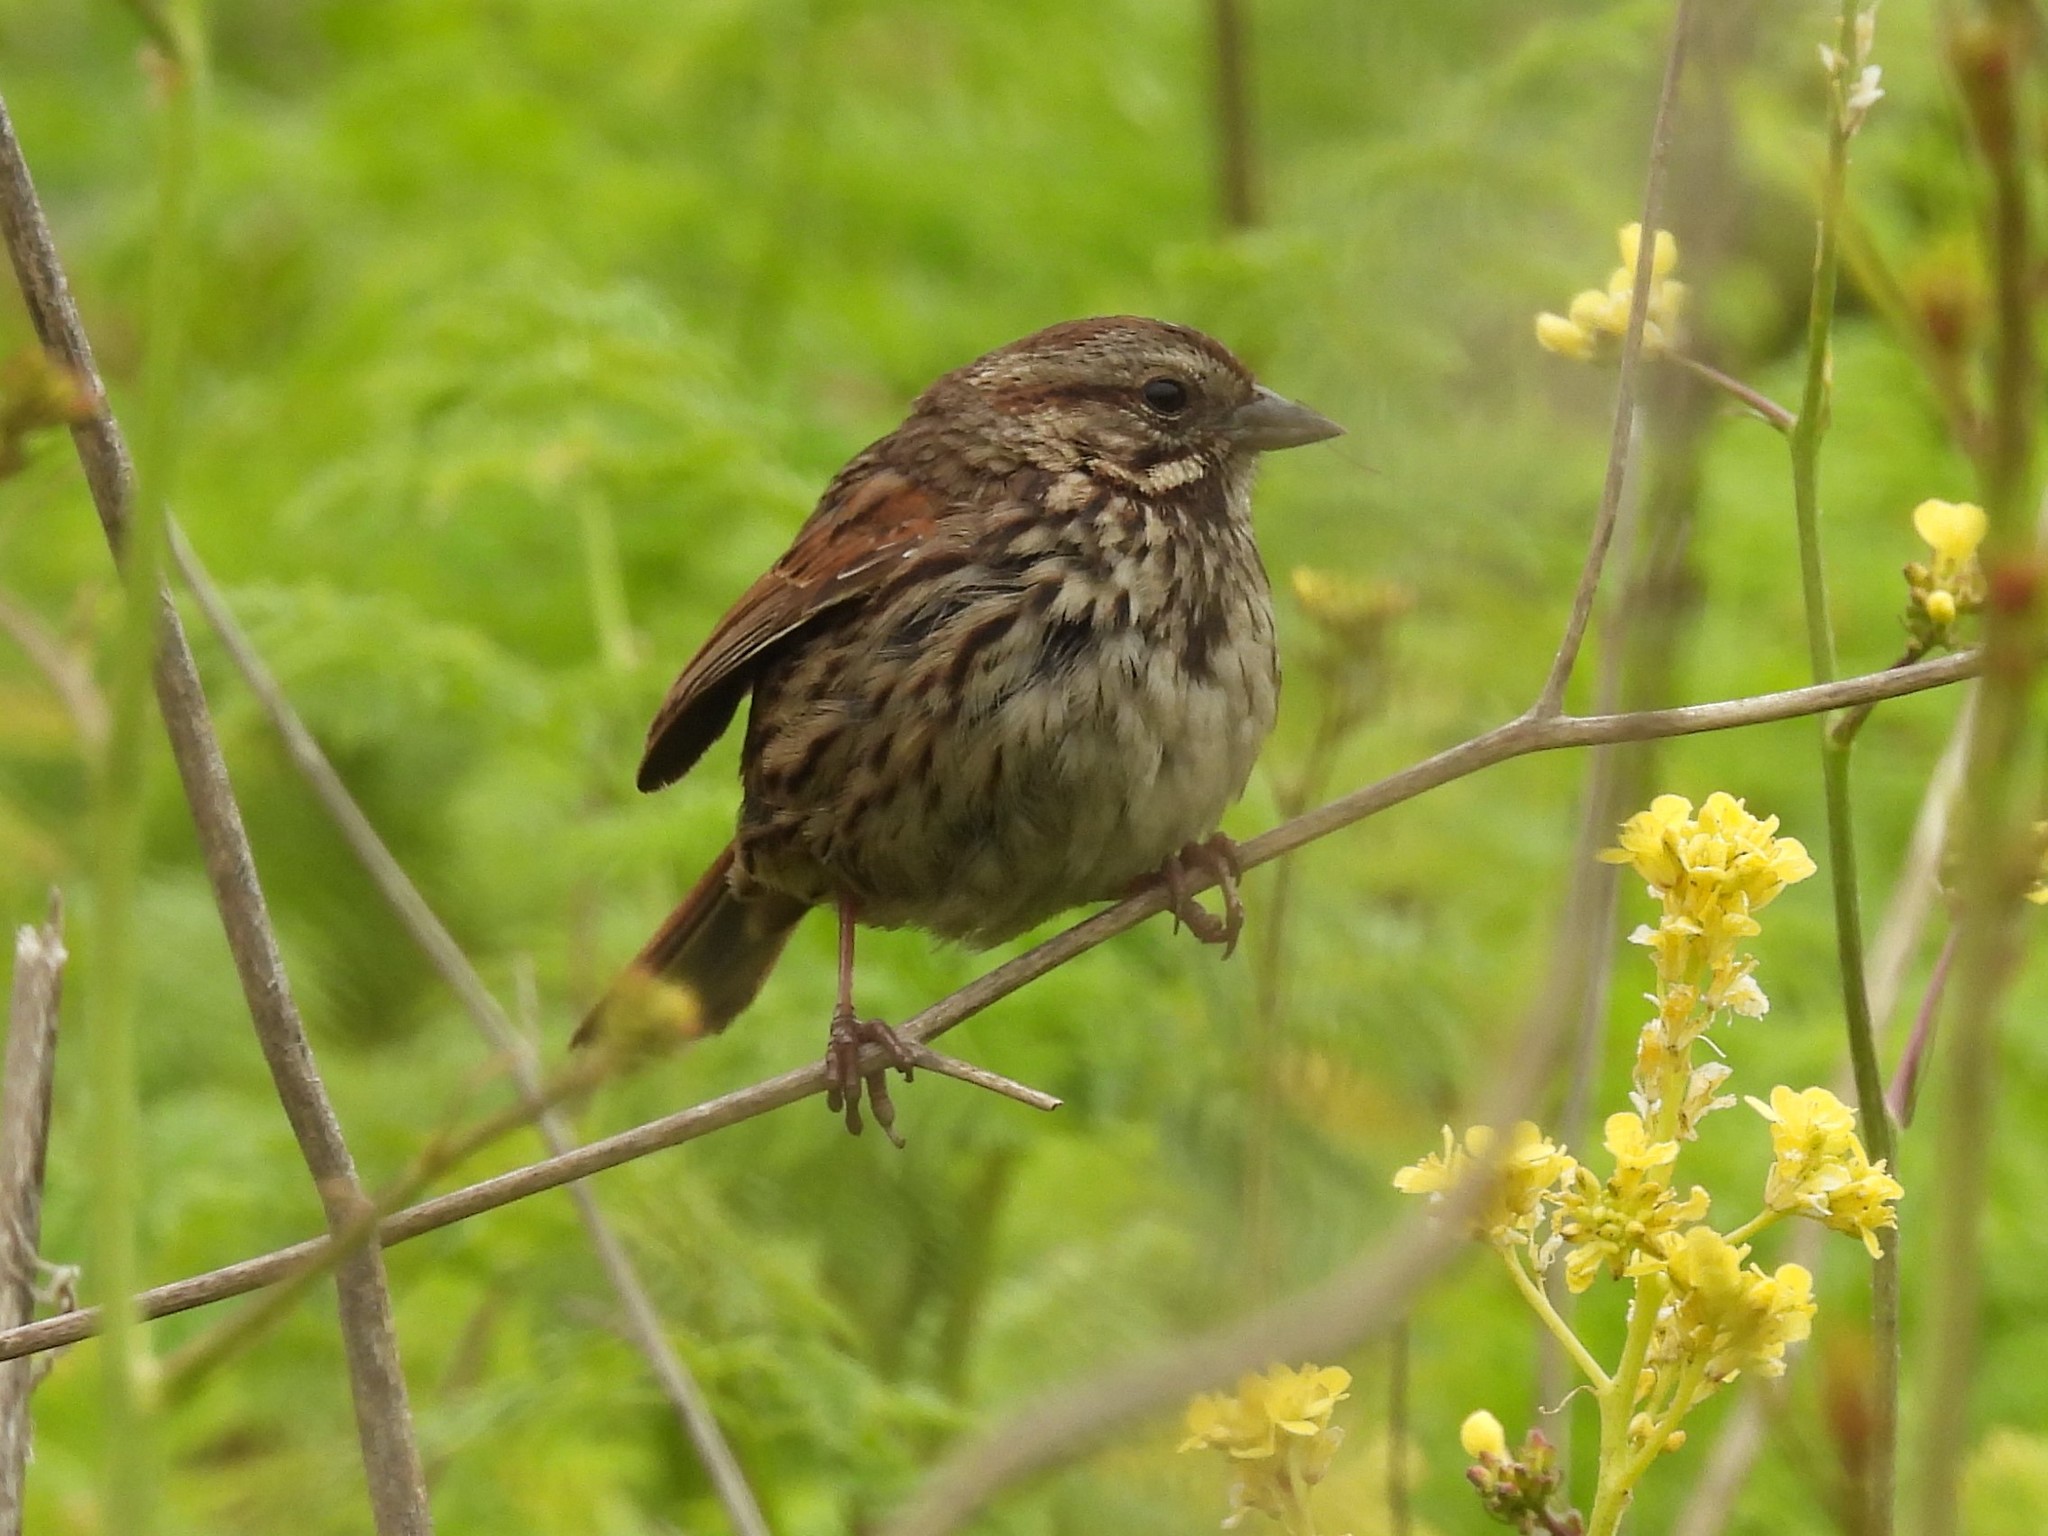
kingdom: Animalia
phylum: Chordata
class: Aves
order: Passeriformes
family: Passerellidae
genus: Melospiza
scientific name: Melospiza melodia
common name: Song sparrow
